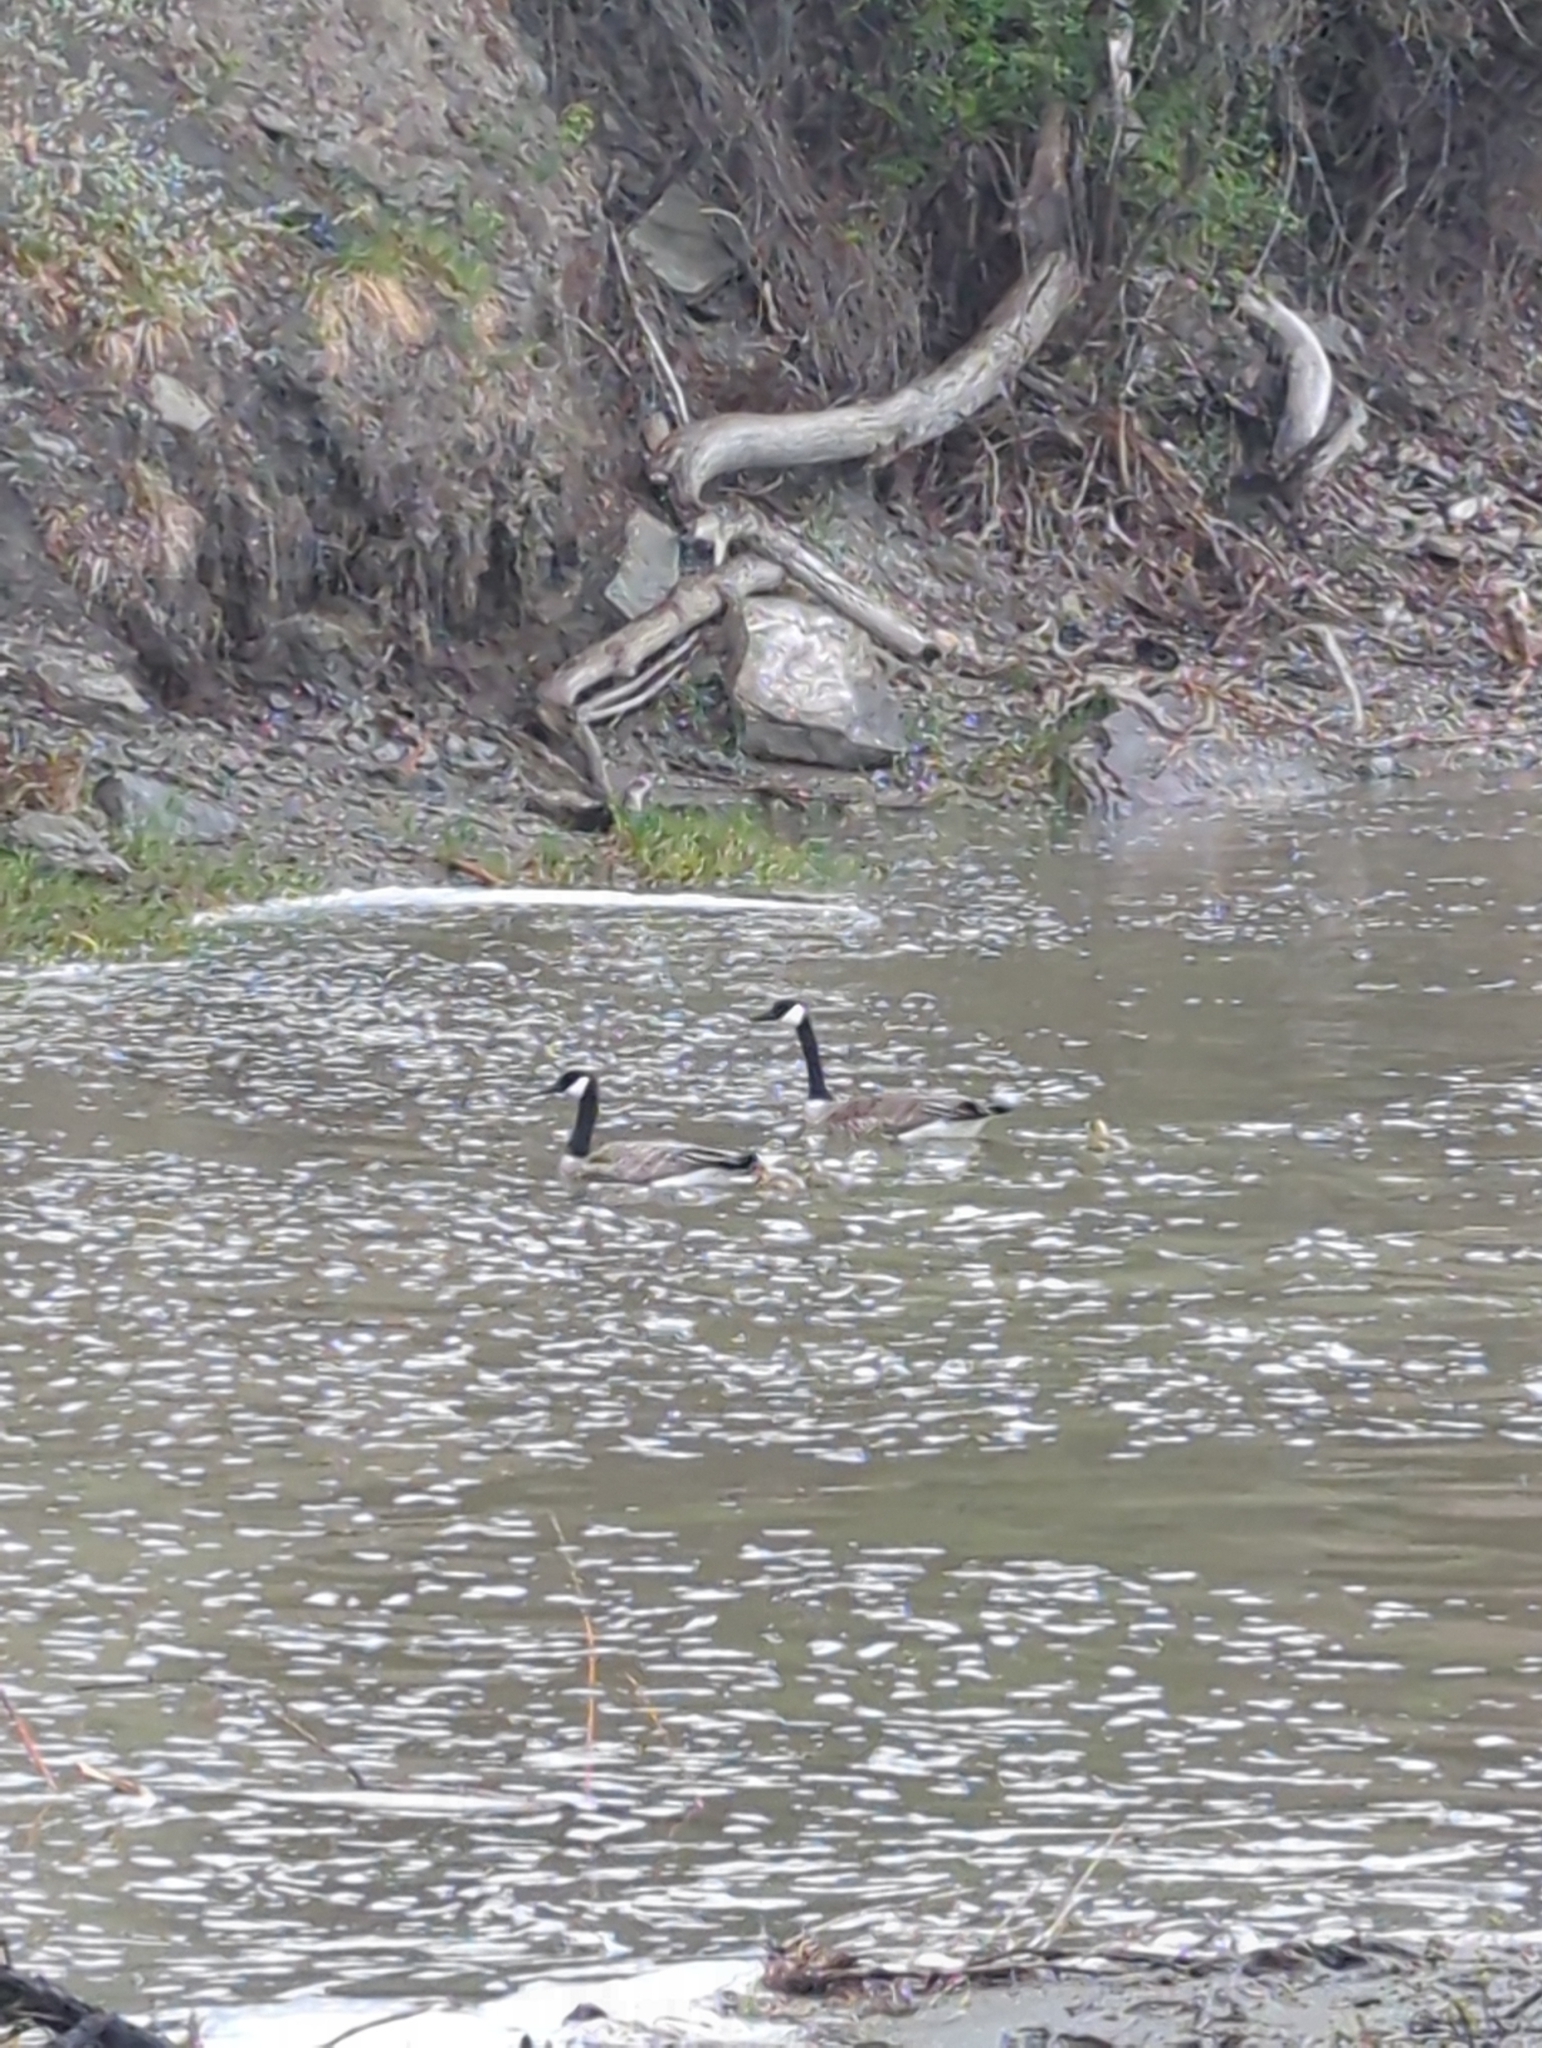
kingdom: Animalia
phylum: Chordata
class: Aves
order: Anseriformes
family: Anatidae
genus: Branta
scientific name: Branta canadensis
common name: Canada goose
